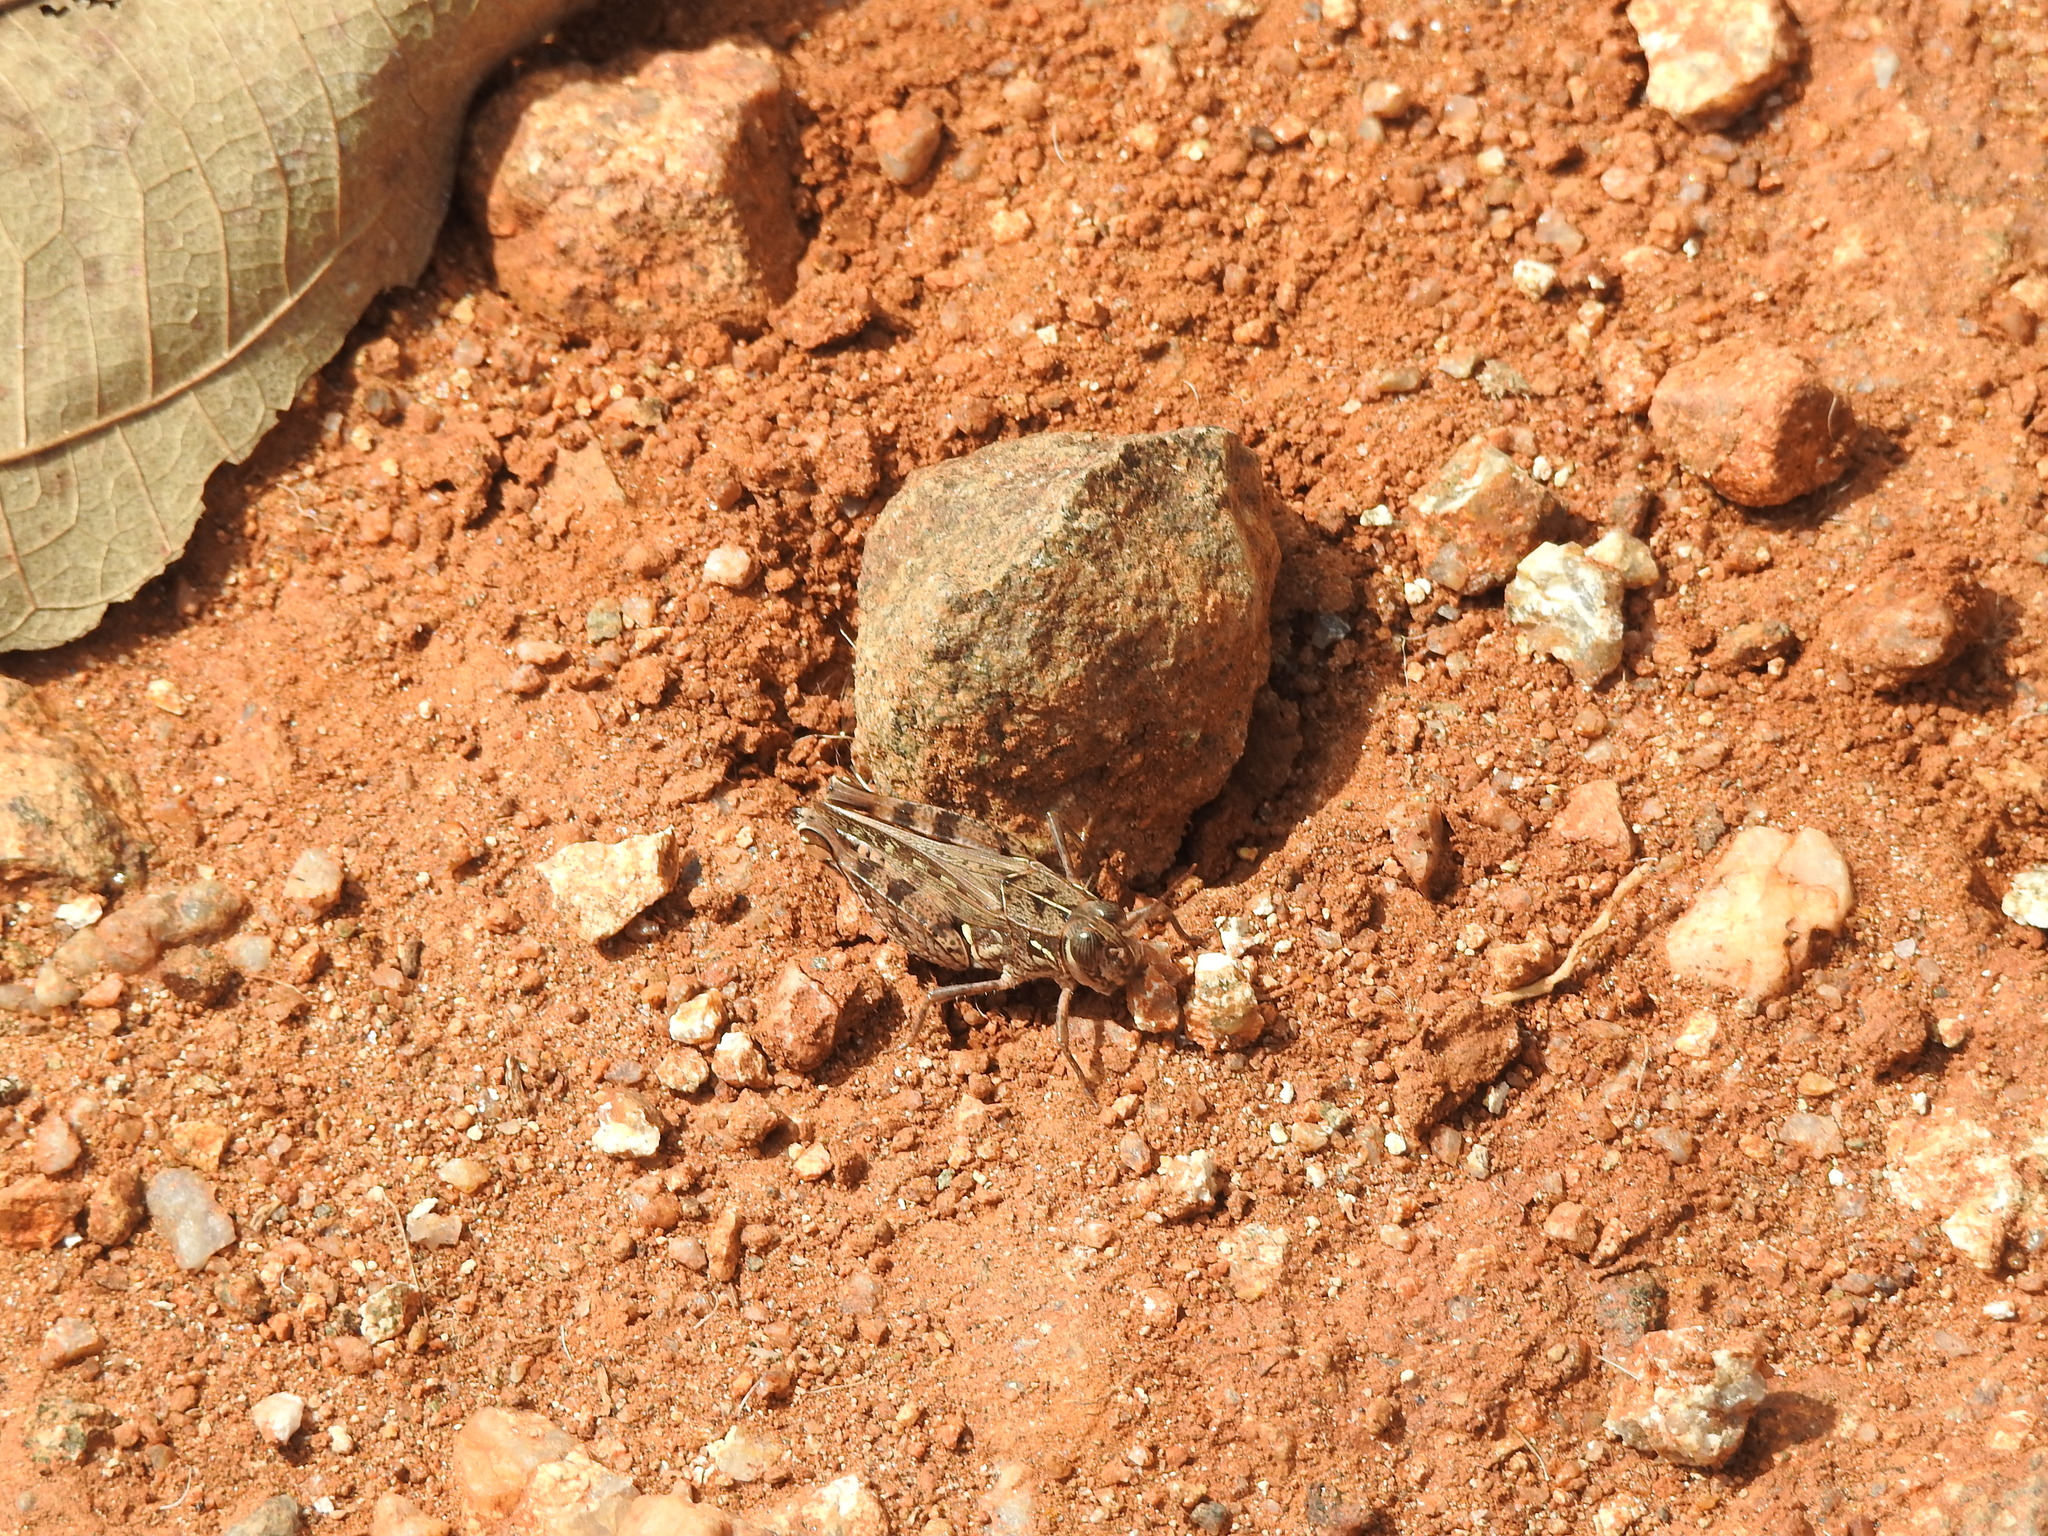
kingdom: Animalia
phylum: Arthropoda
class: Insecta
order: Orthoptera
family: Acrididae
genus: Acorypha
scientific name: Acorypha glaucopsis
